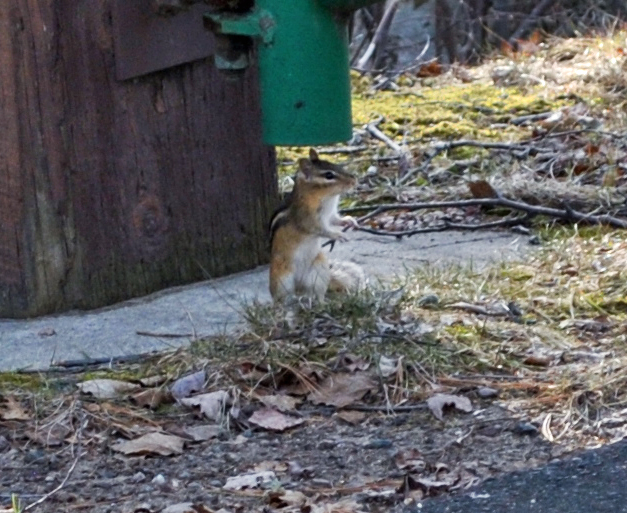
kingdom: Animalia
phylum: Chordata
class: Mammalia
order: Rodentia
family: Sciuridae
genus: Tamias
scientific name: Tamias striatus
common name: Eastern chipmunk
